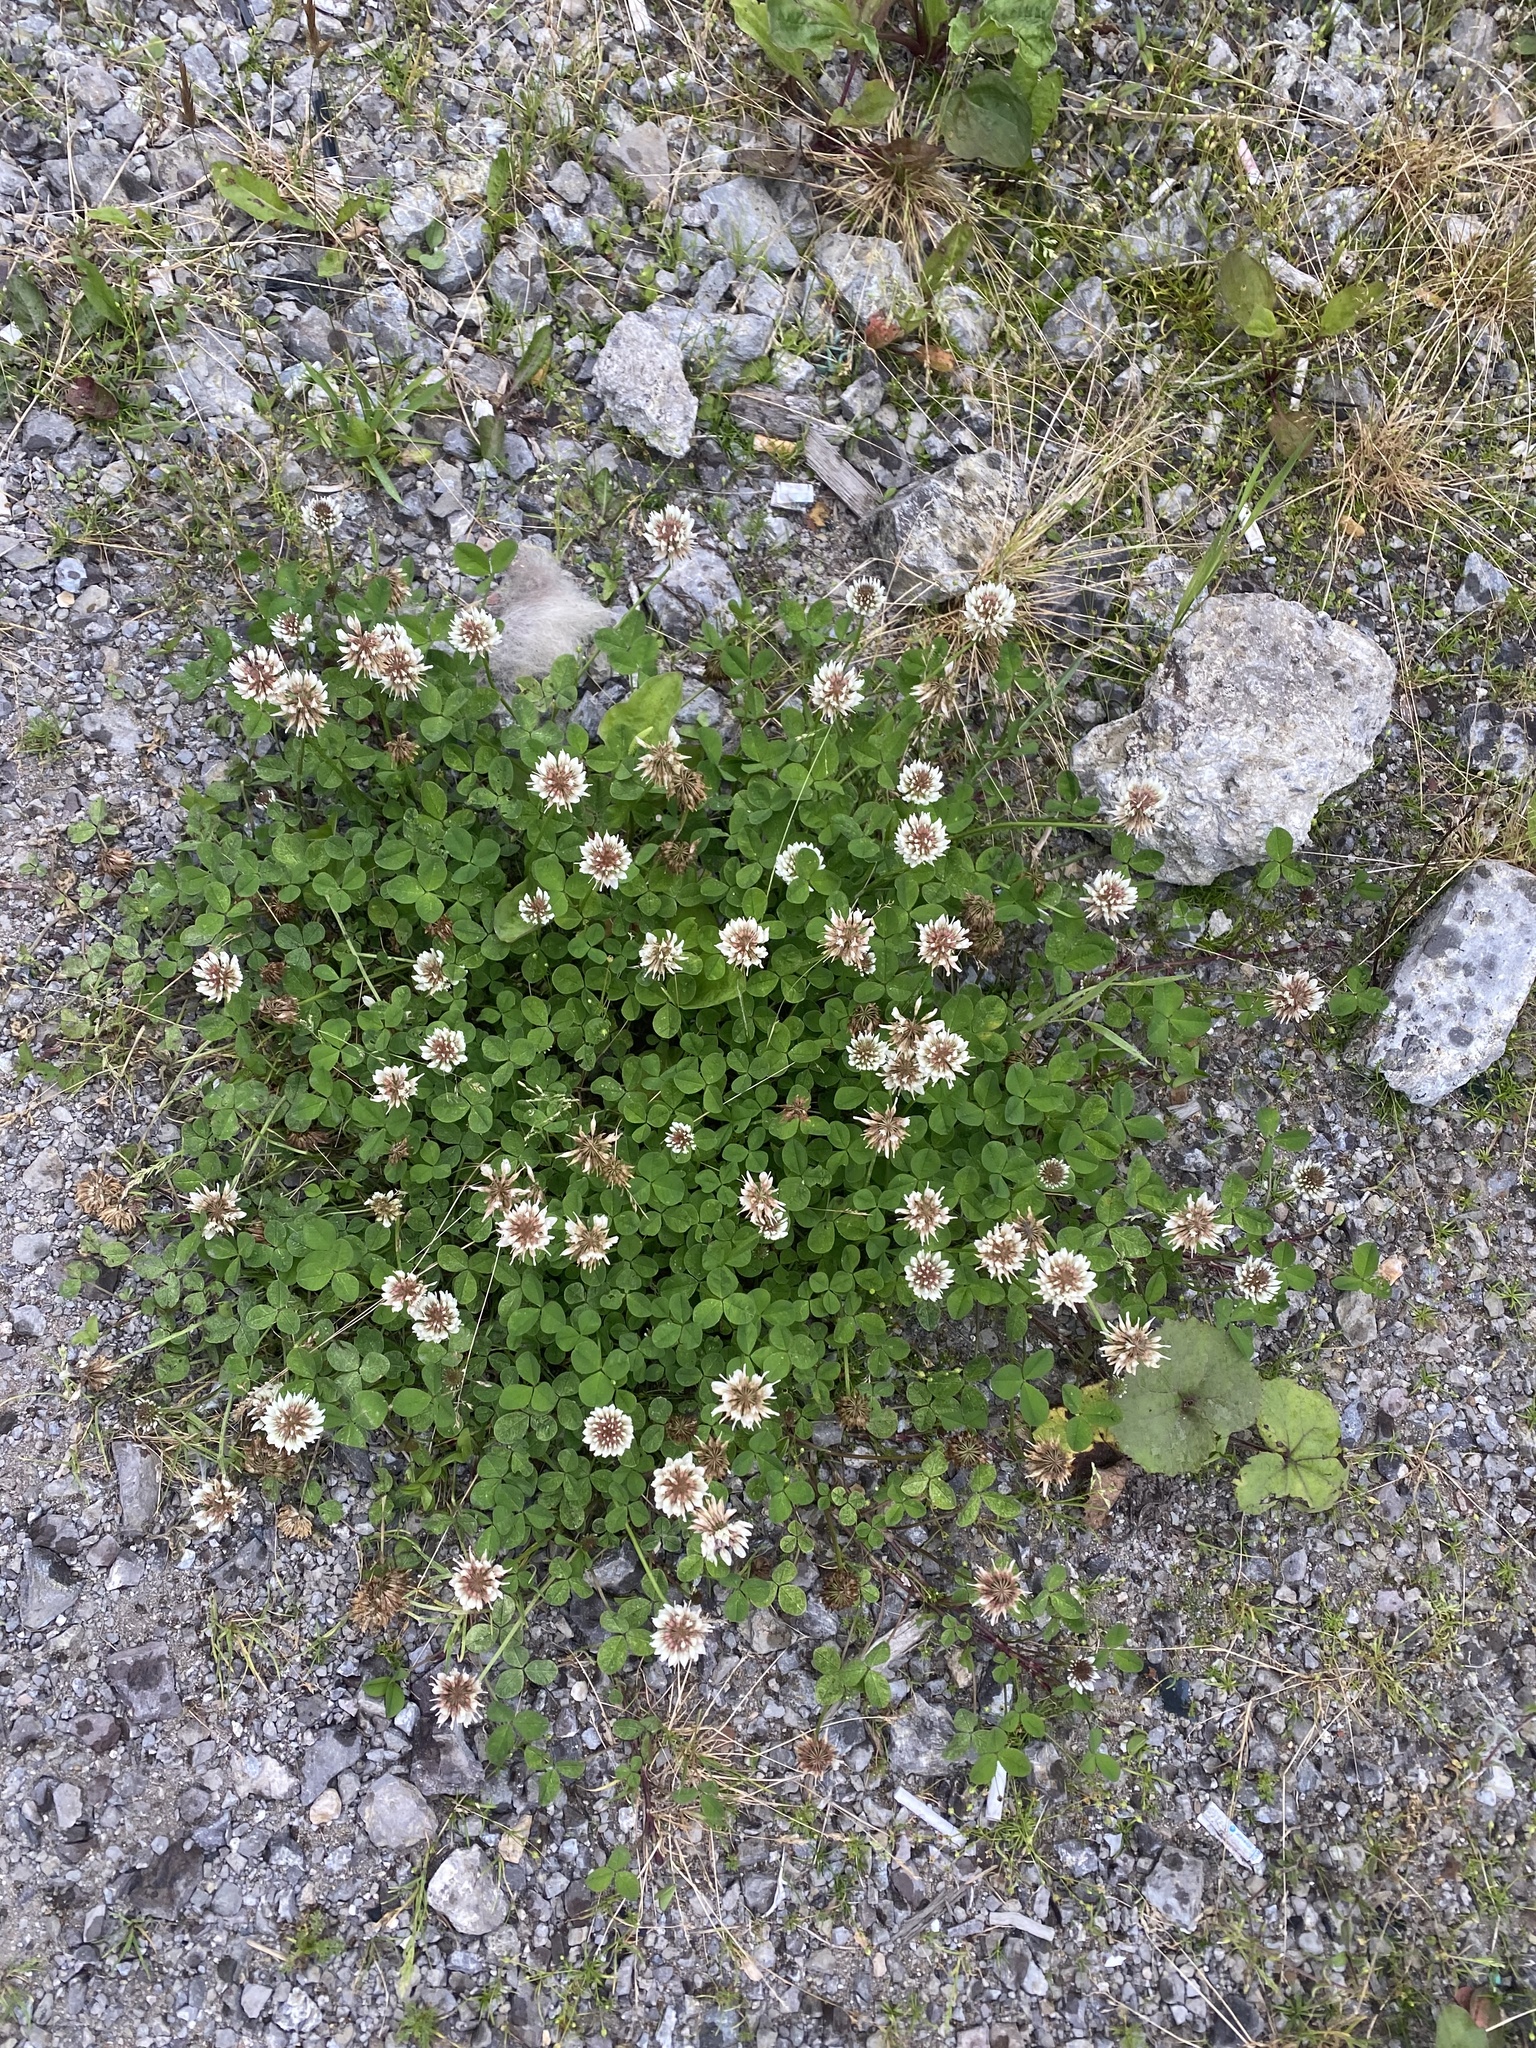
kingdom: Plantae
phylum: Tracheophyta
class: Magnoliopsida
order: Fabales
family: Fabaceae
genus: Trifolium
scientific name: Trifolium repens
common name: White clover
